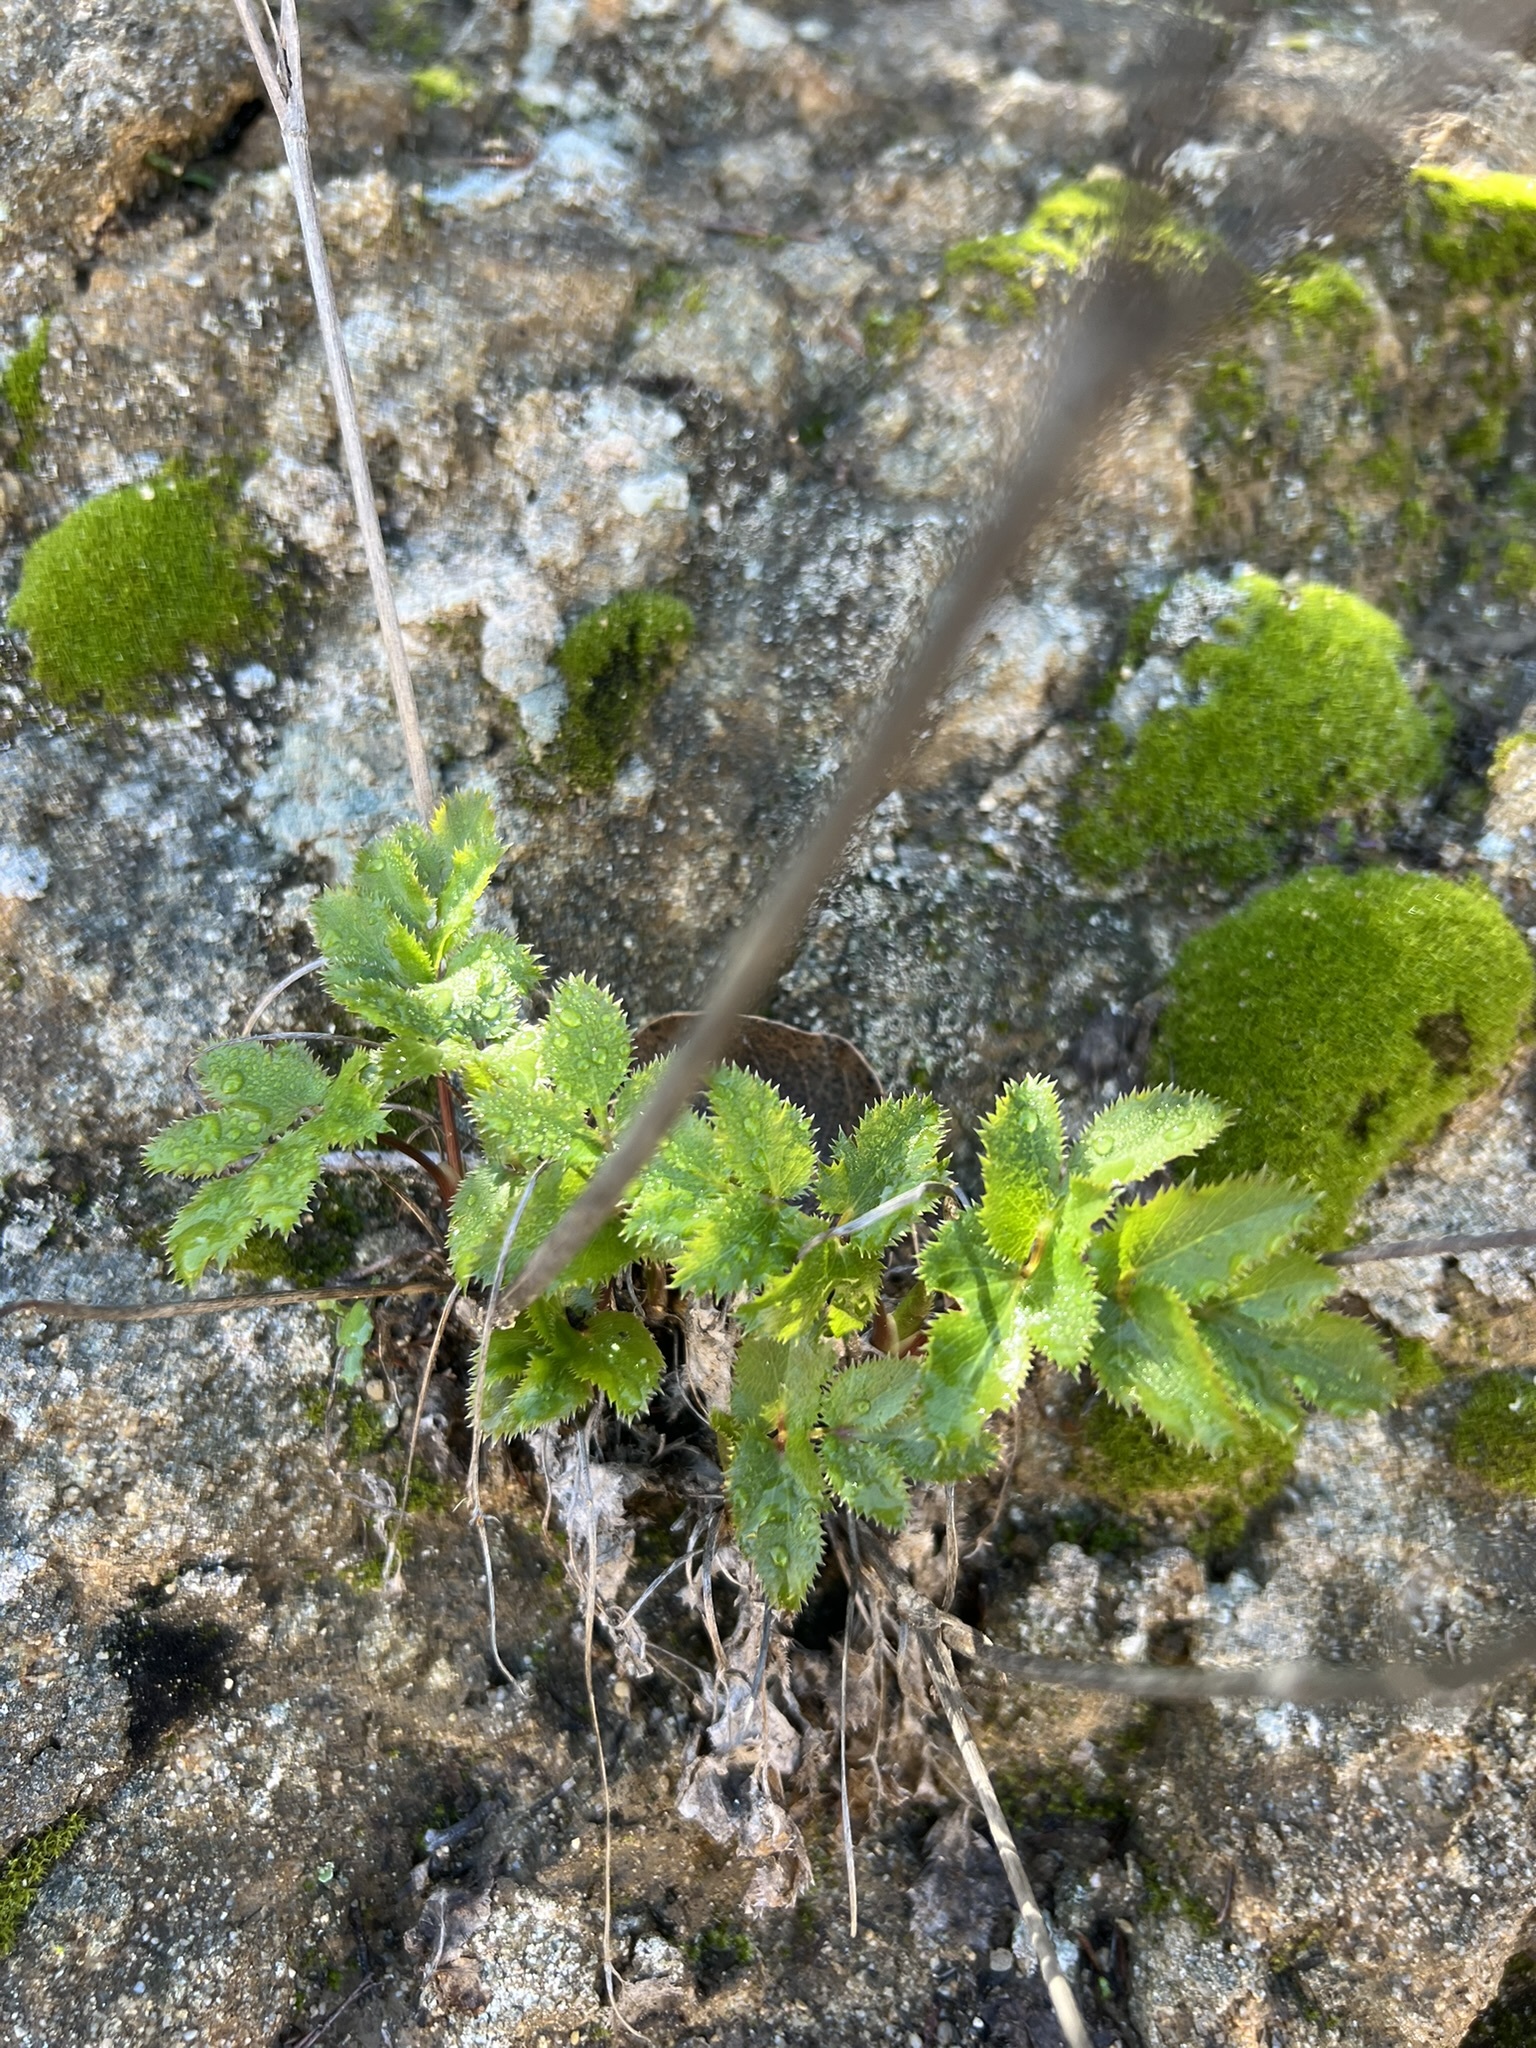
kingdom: Plantae
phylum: Tracheophyta
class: Magnoliopsida
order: Apiales
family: Apiaceae
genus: Tauschia
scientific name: Tauschia arguta
